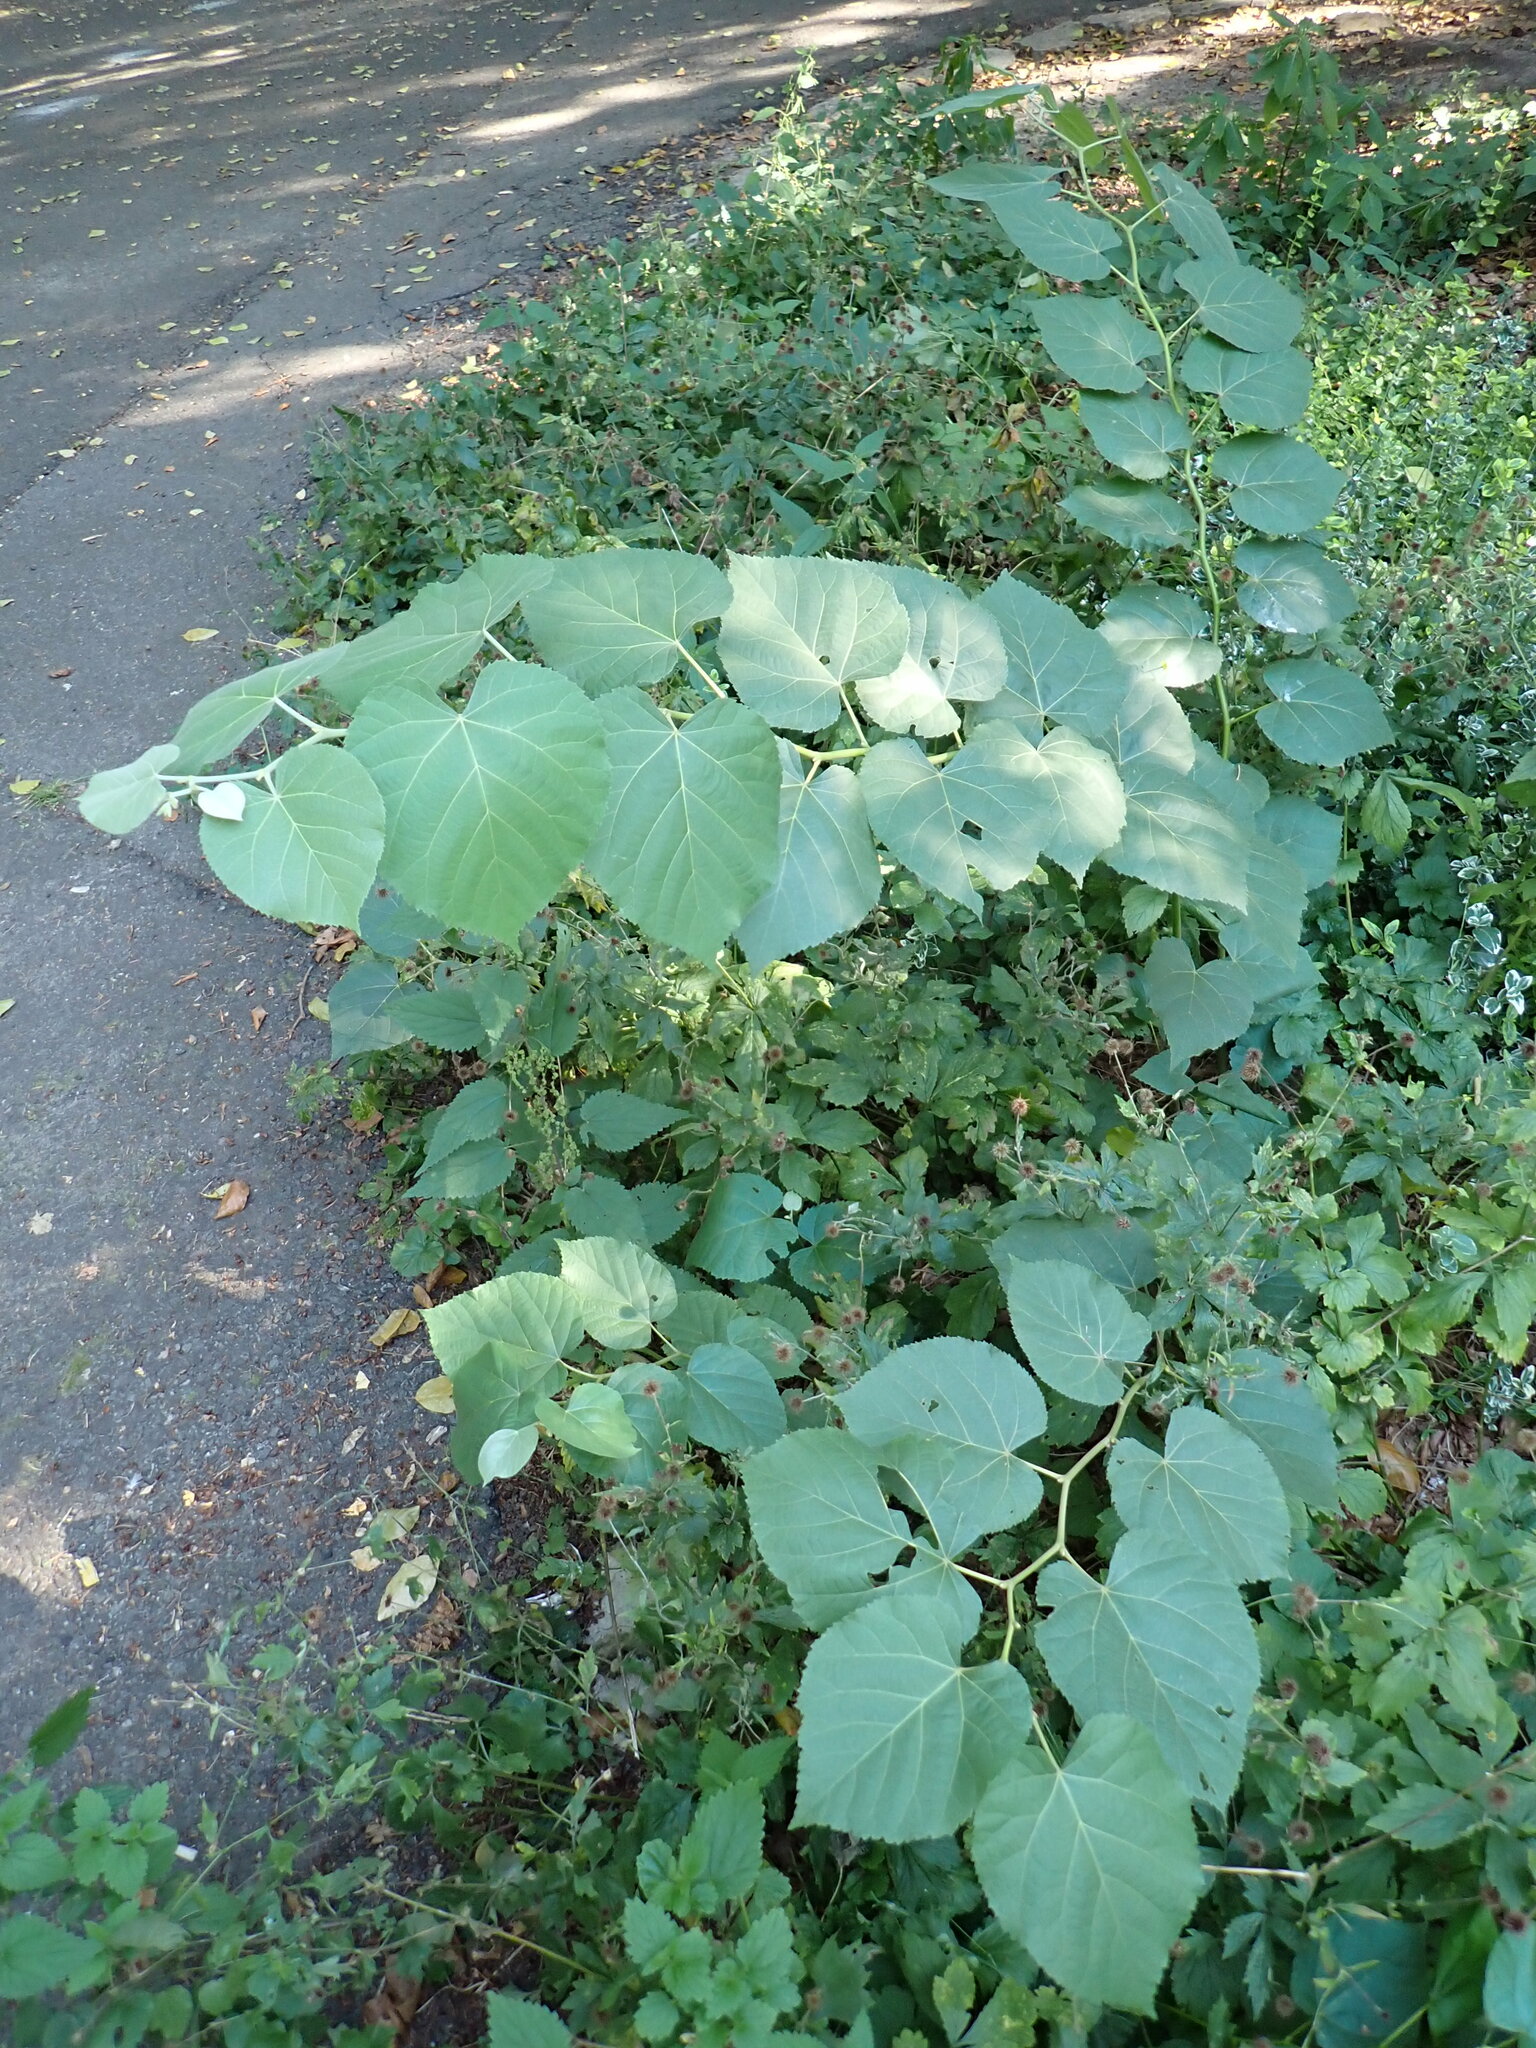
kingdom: Plantae
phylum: Tracheophyta
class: Magnoliopsida
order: Malvales
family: Malvaceae
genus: Tilia
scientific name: Tilia tomentosa
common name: Silver lime
